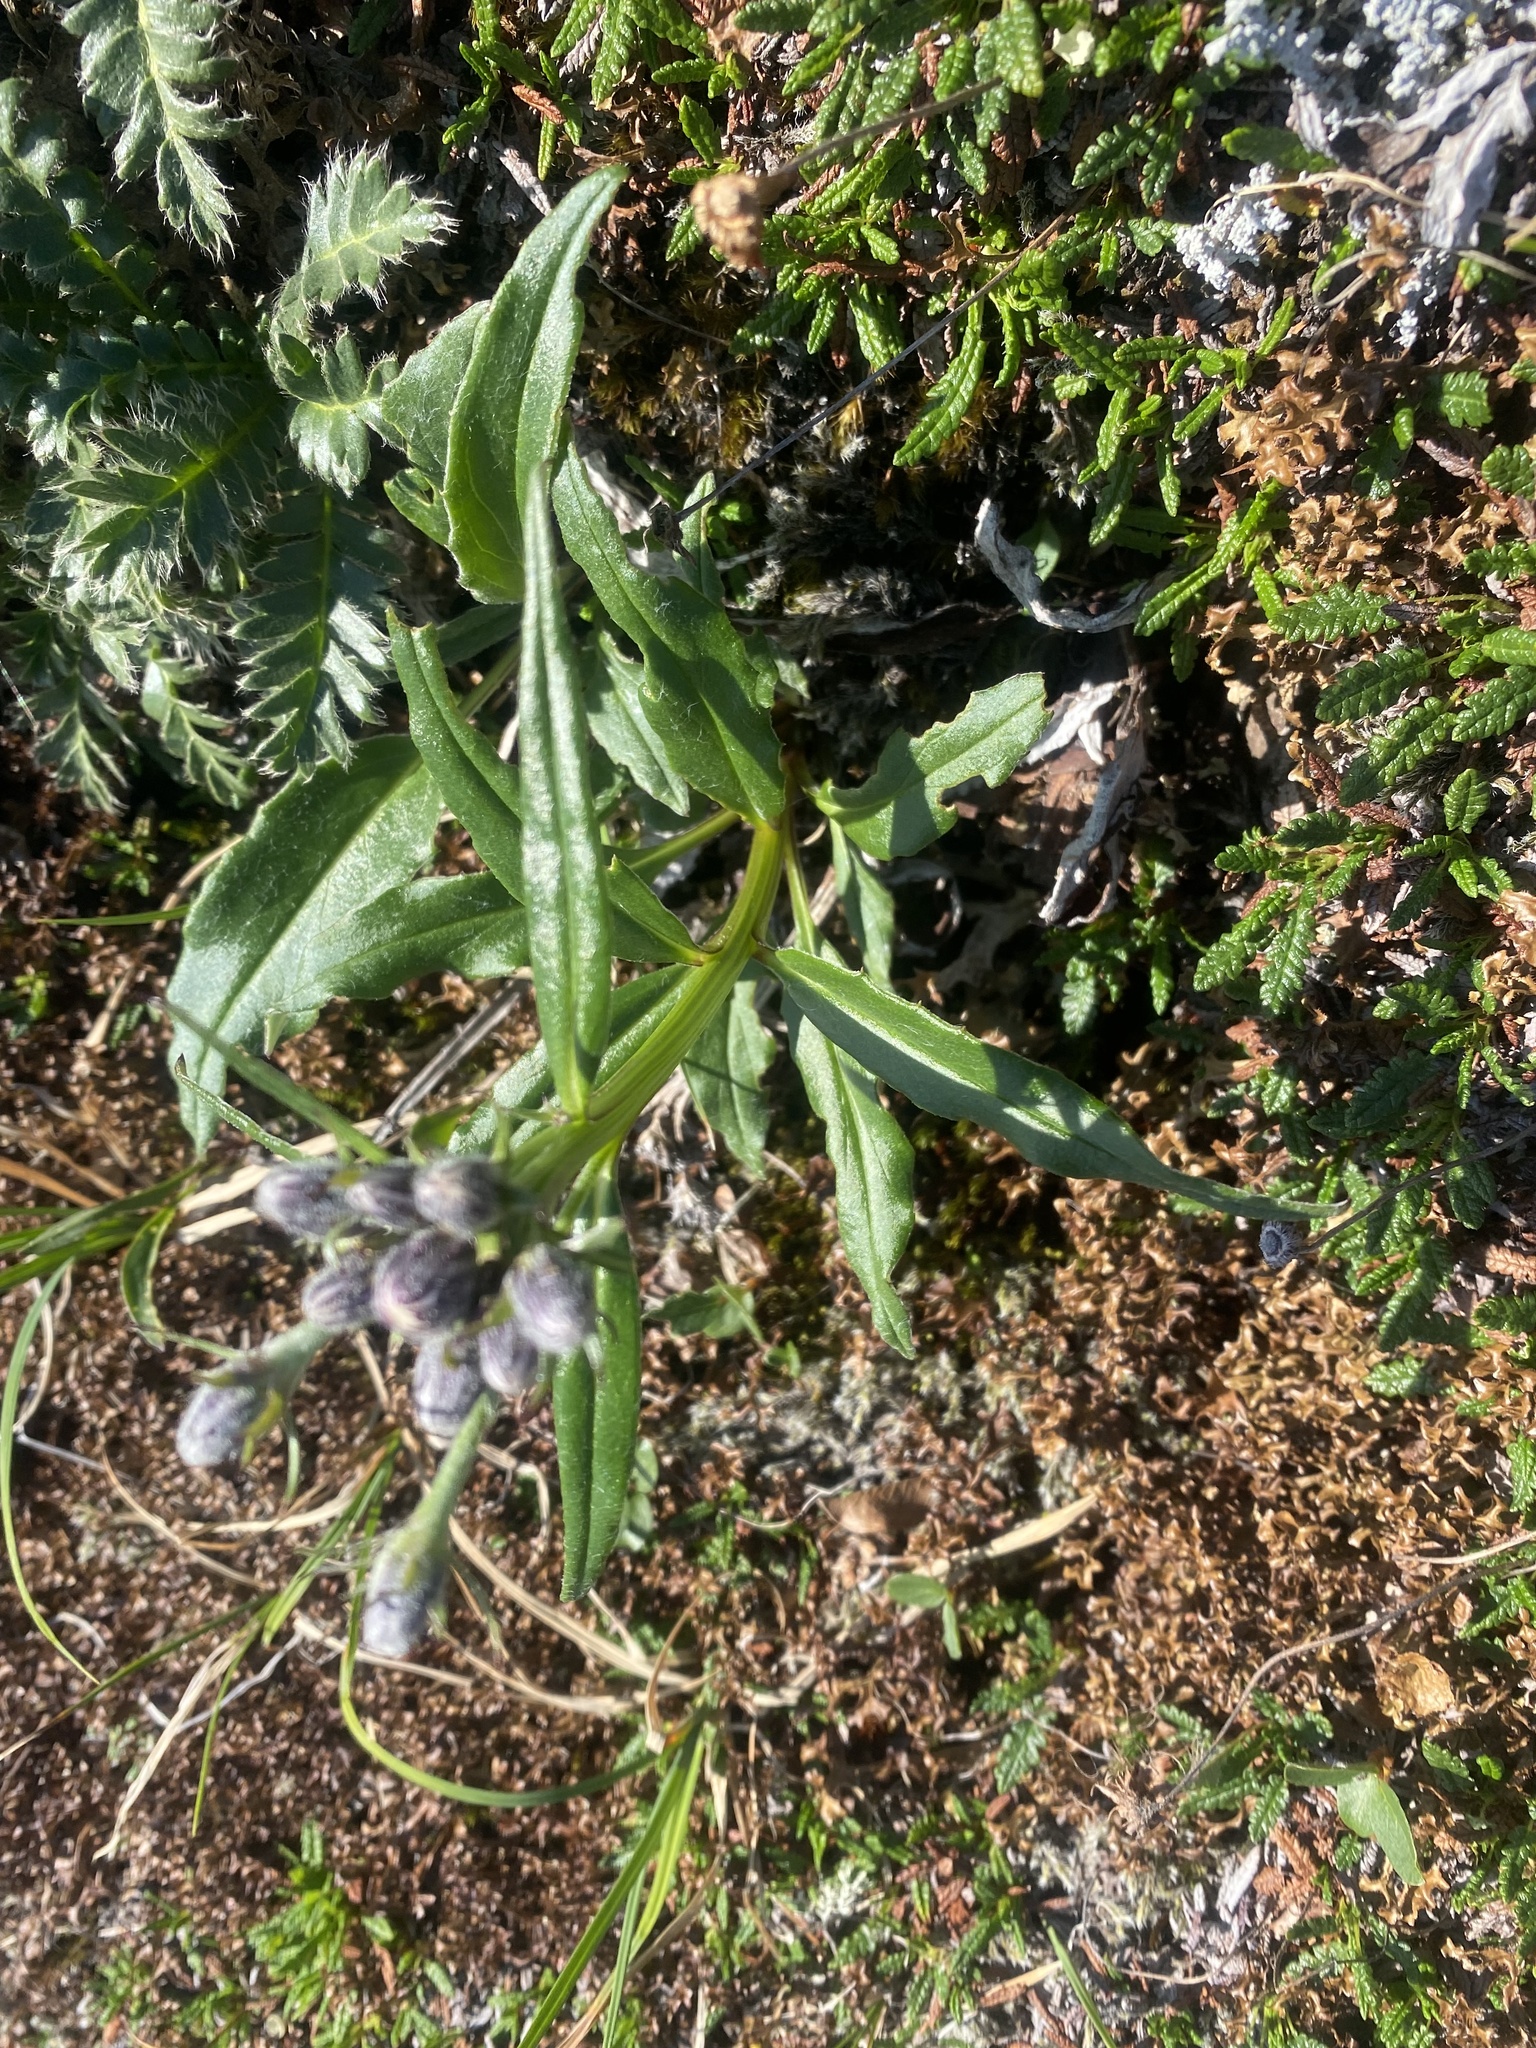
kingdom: Plantae
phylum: Tracheophyta
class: Magnoliopsida
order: Asterales
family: Asteraceae
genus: Saussurea
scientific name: Saussurea tilesii
